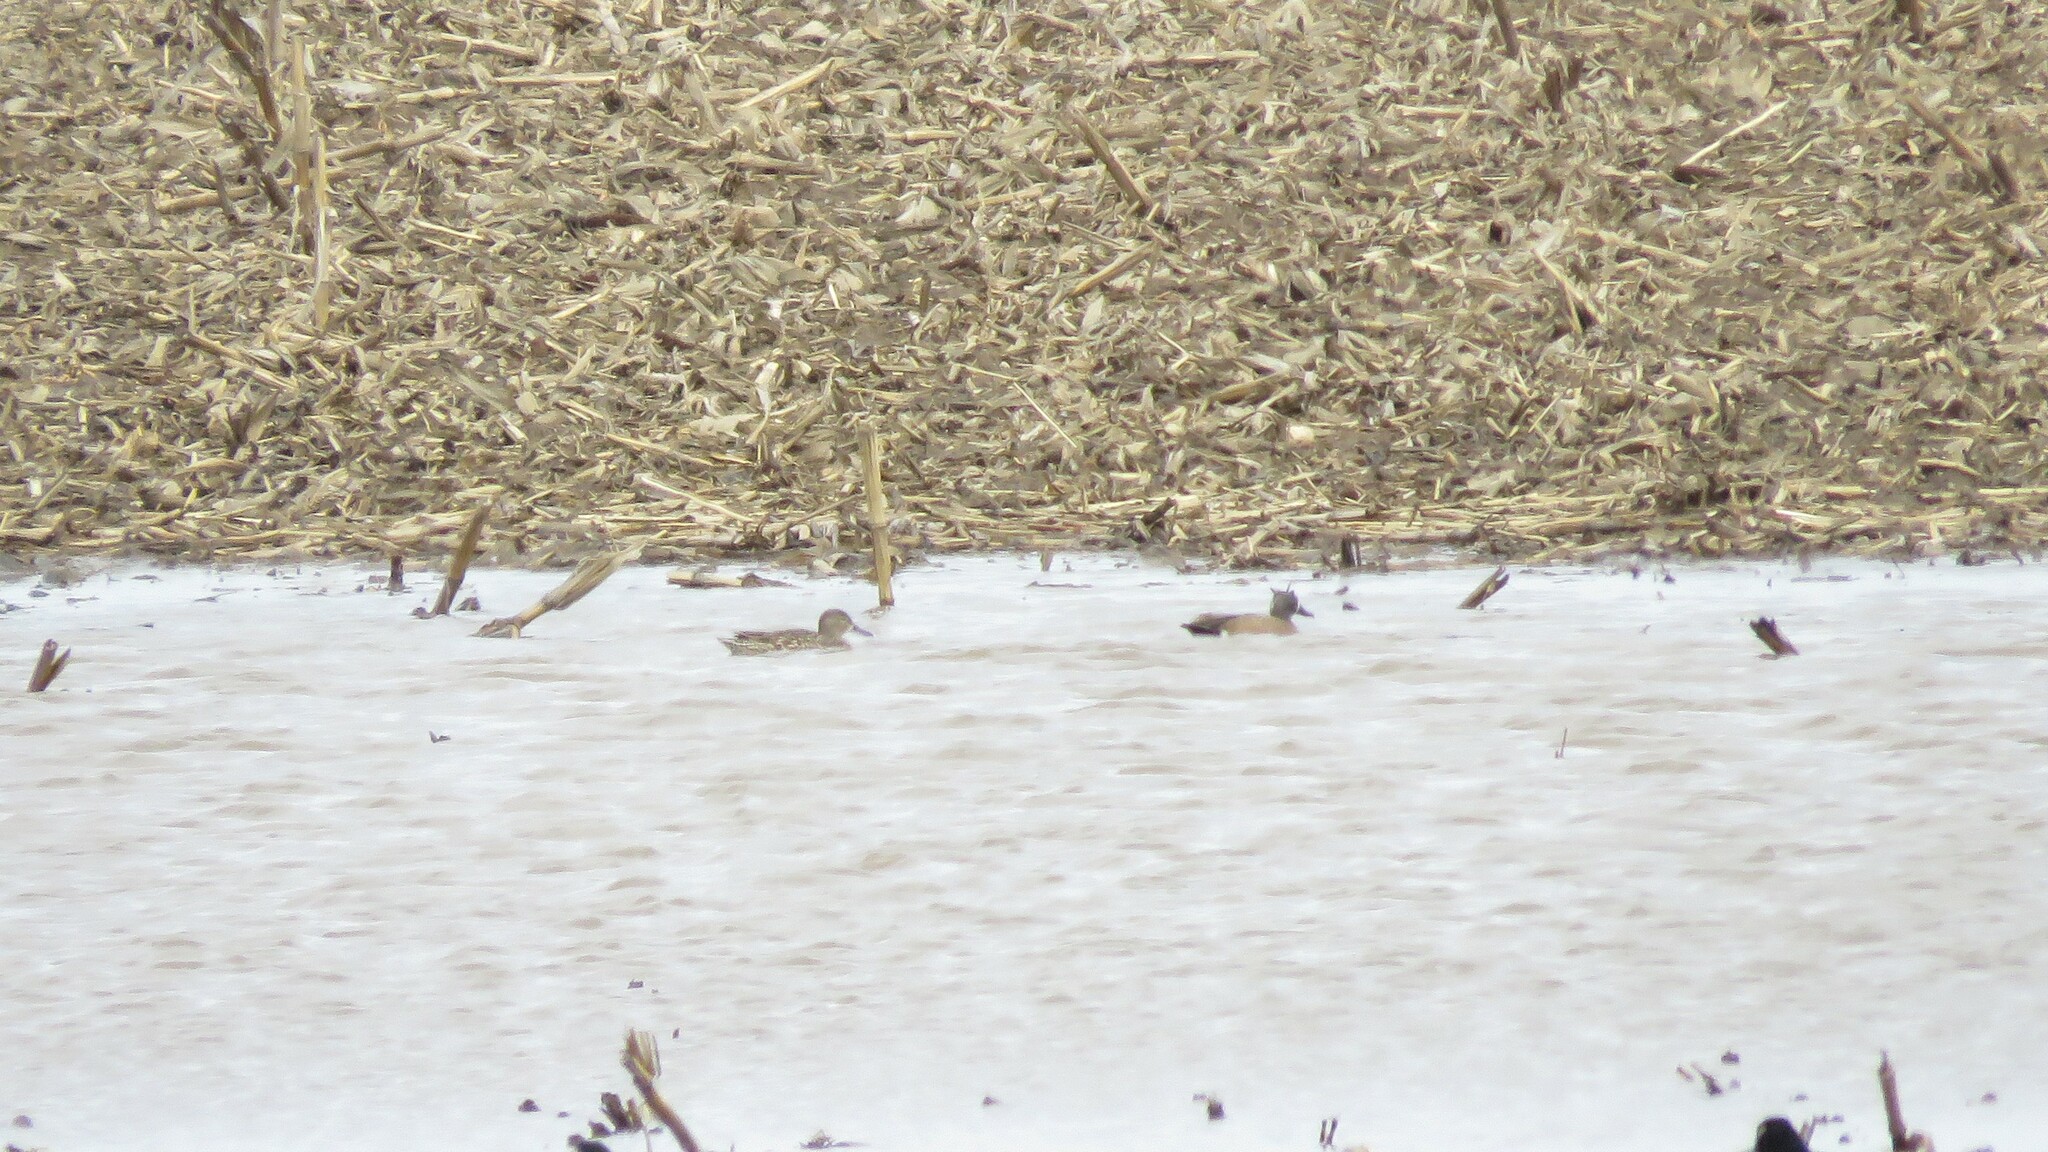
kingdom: Animalia
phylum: Chordata
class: Aves
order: Anseriformes
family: Anatidae
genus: Spatula
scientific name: Spatula discors
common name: Blue-winged teal
